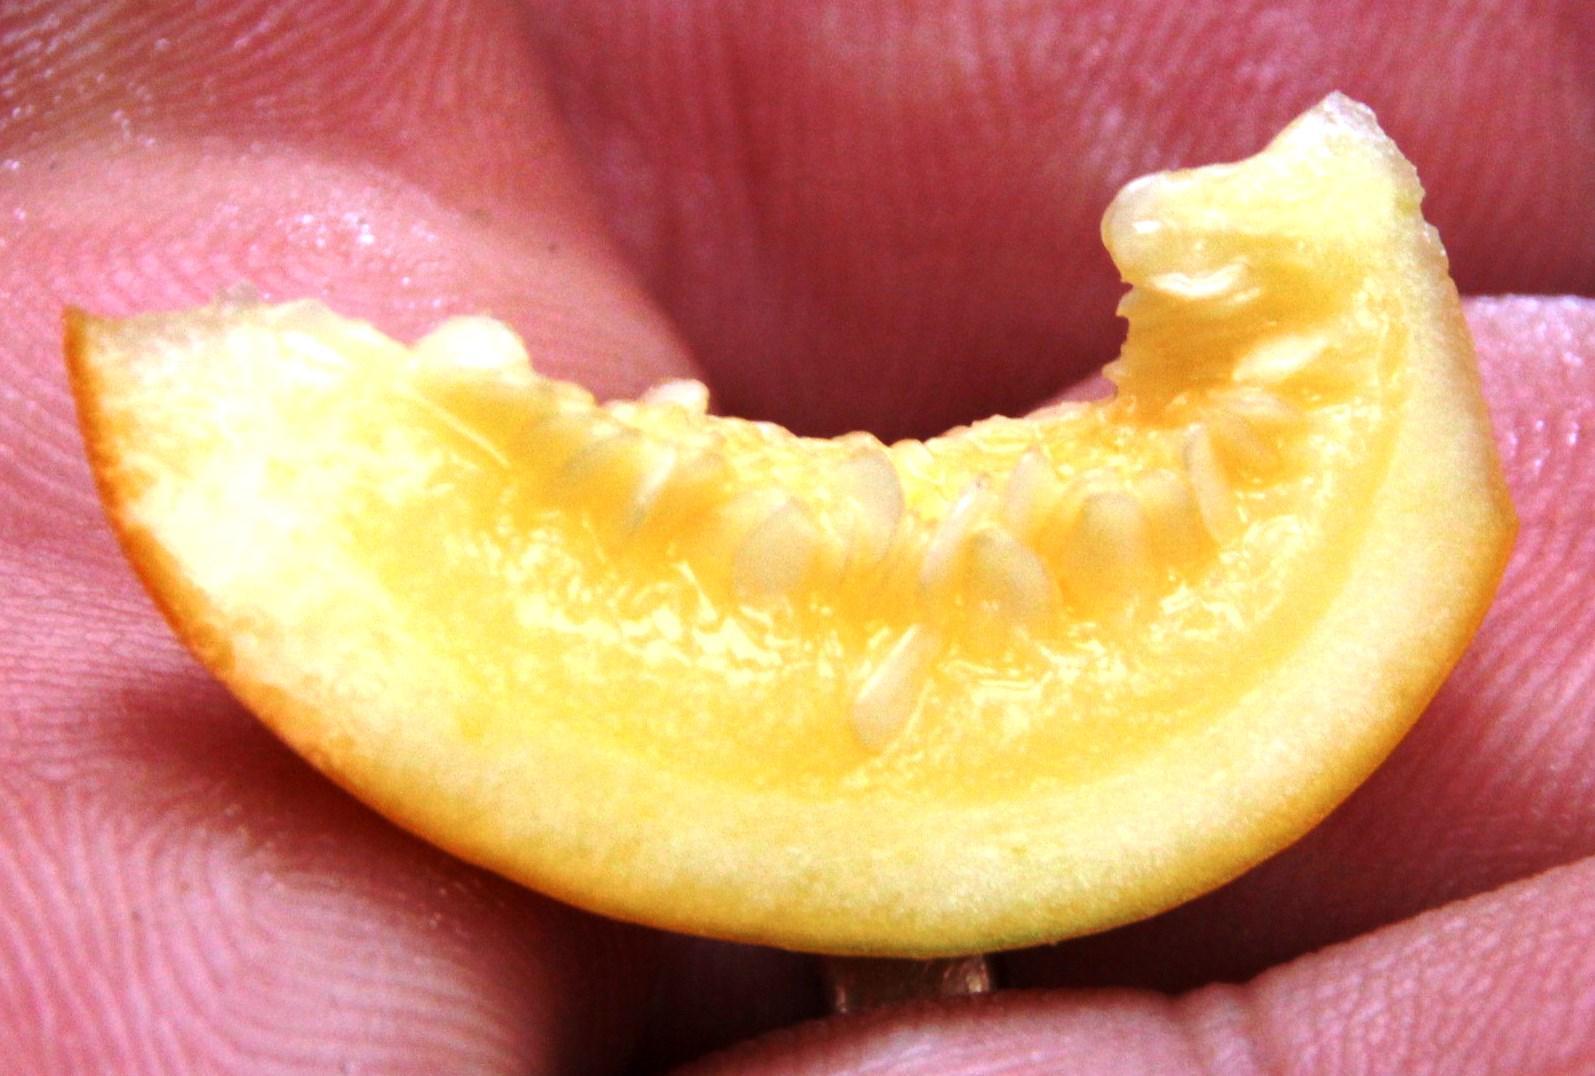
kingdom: Plantae
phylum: Tracheophyta
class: Magnoliopsida
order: Solanales
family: Solanaceae
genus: Solanum
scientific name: Solanum sessiliflorum
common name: Orinoco-apple
